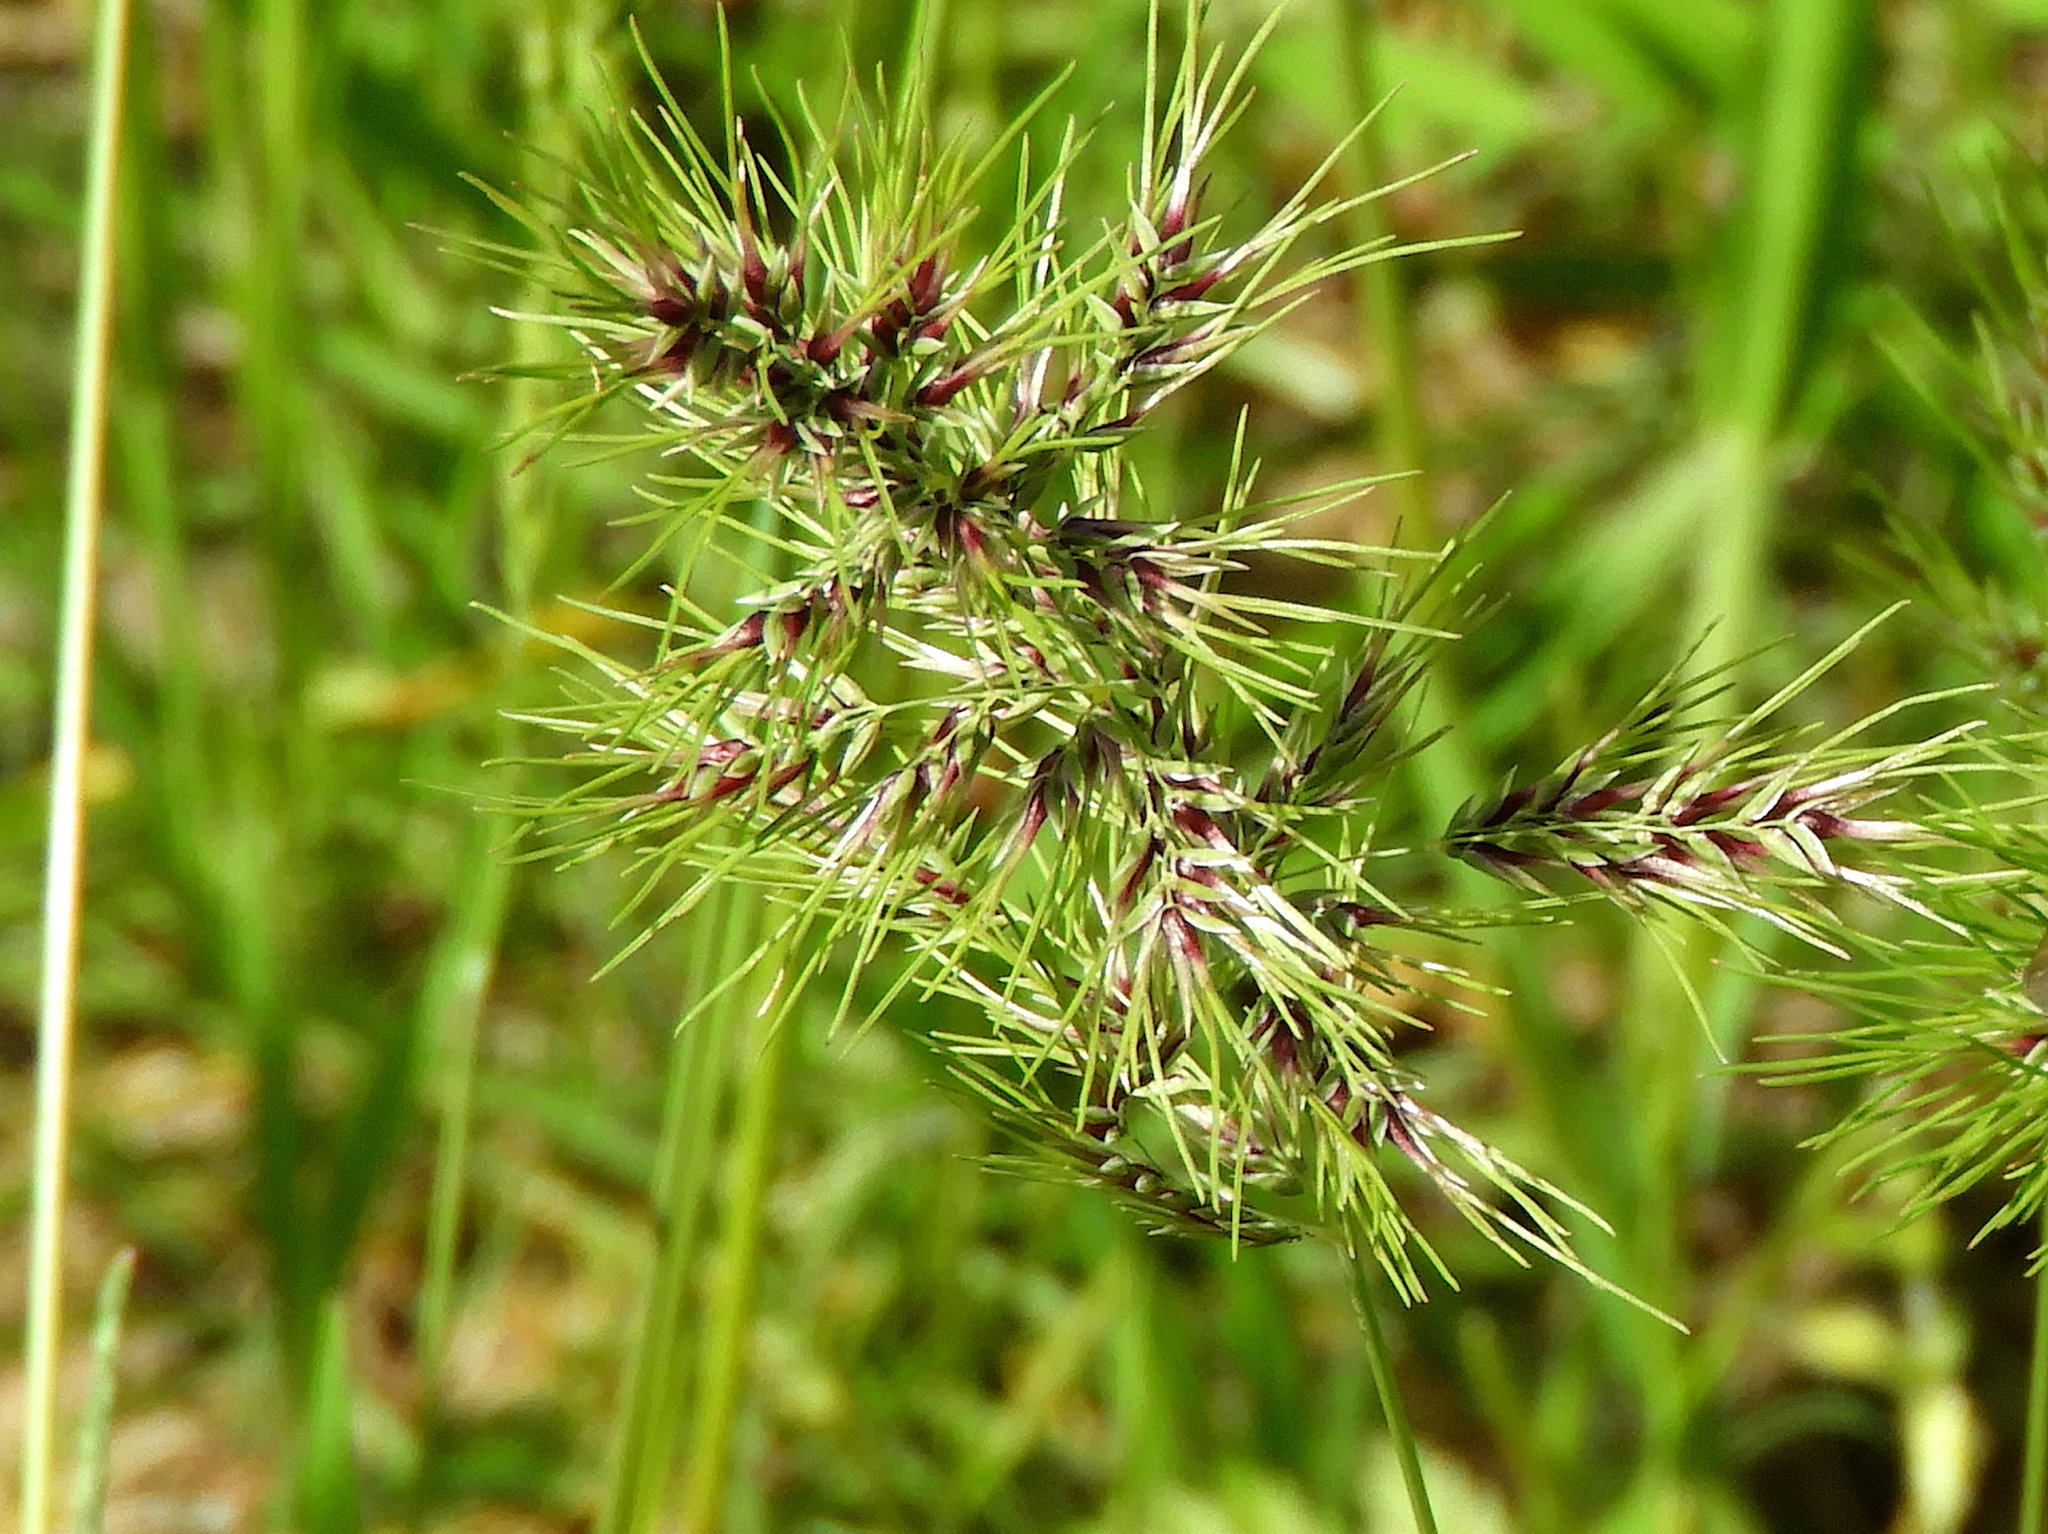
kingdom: Plantae
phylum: Tracheophyta
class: Liliopsida
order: Poales
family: Poaceae
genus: Poa
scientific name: Poa bulbosa
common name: Bulbous bluegrass
